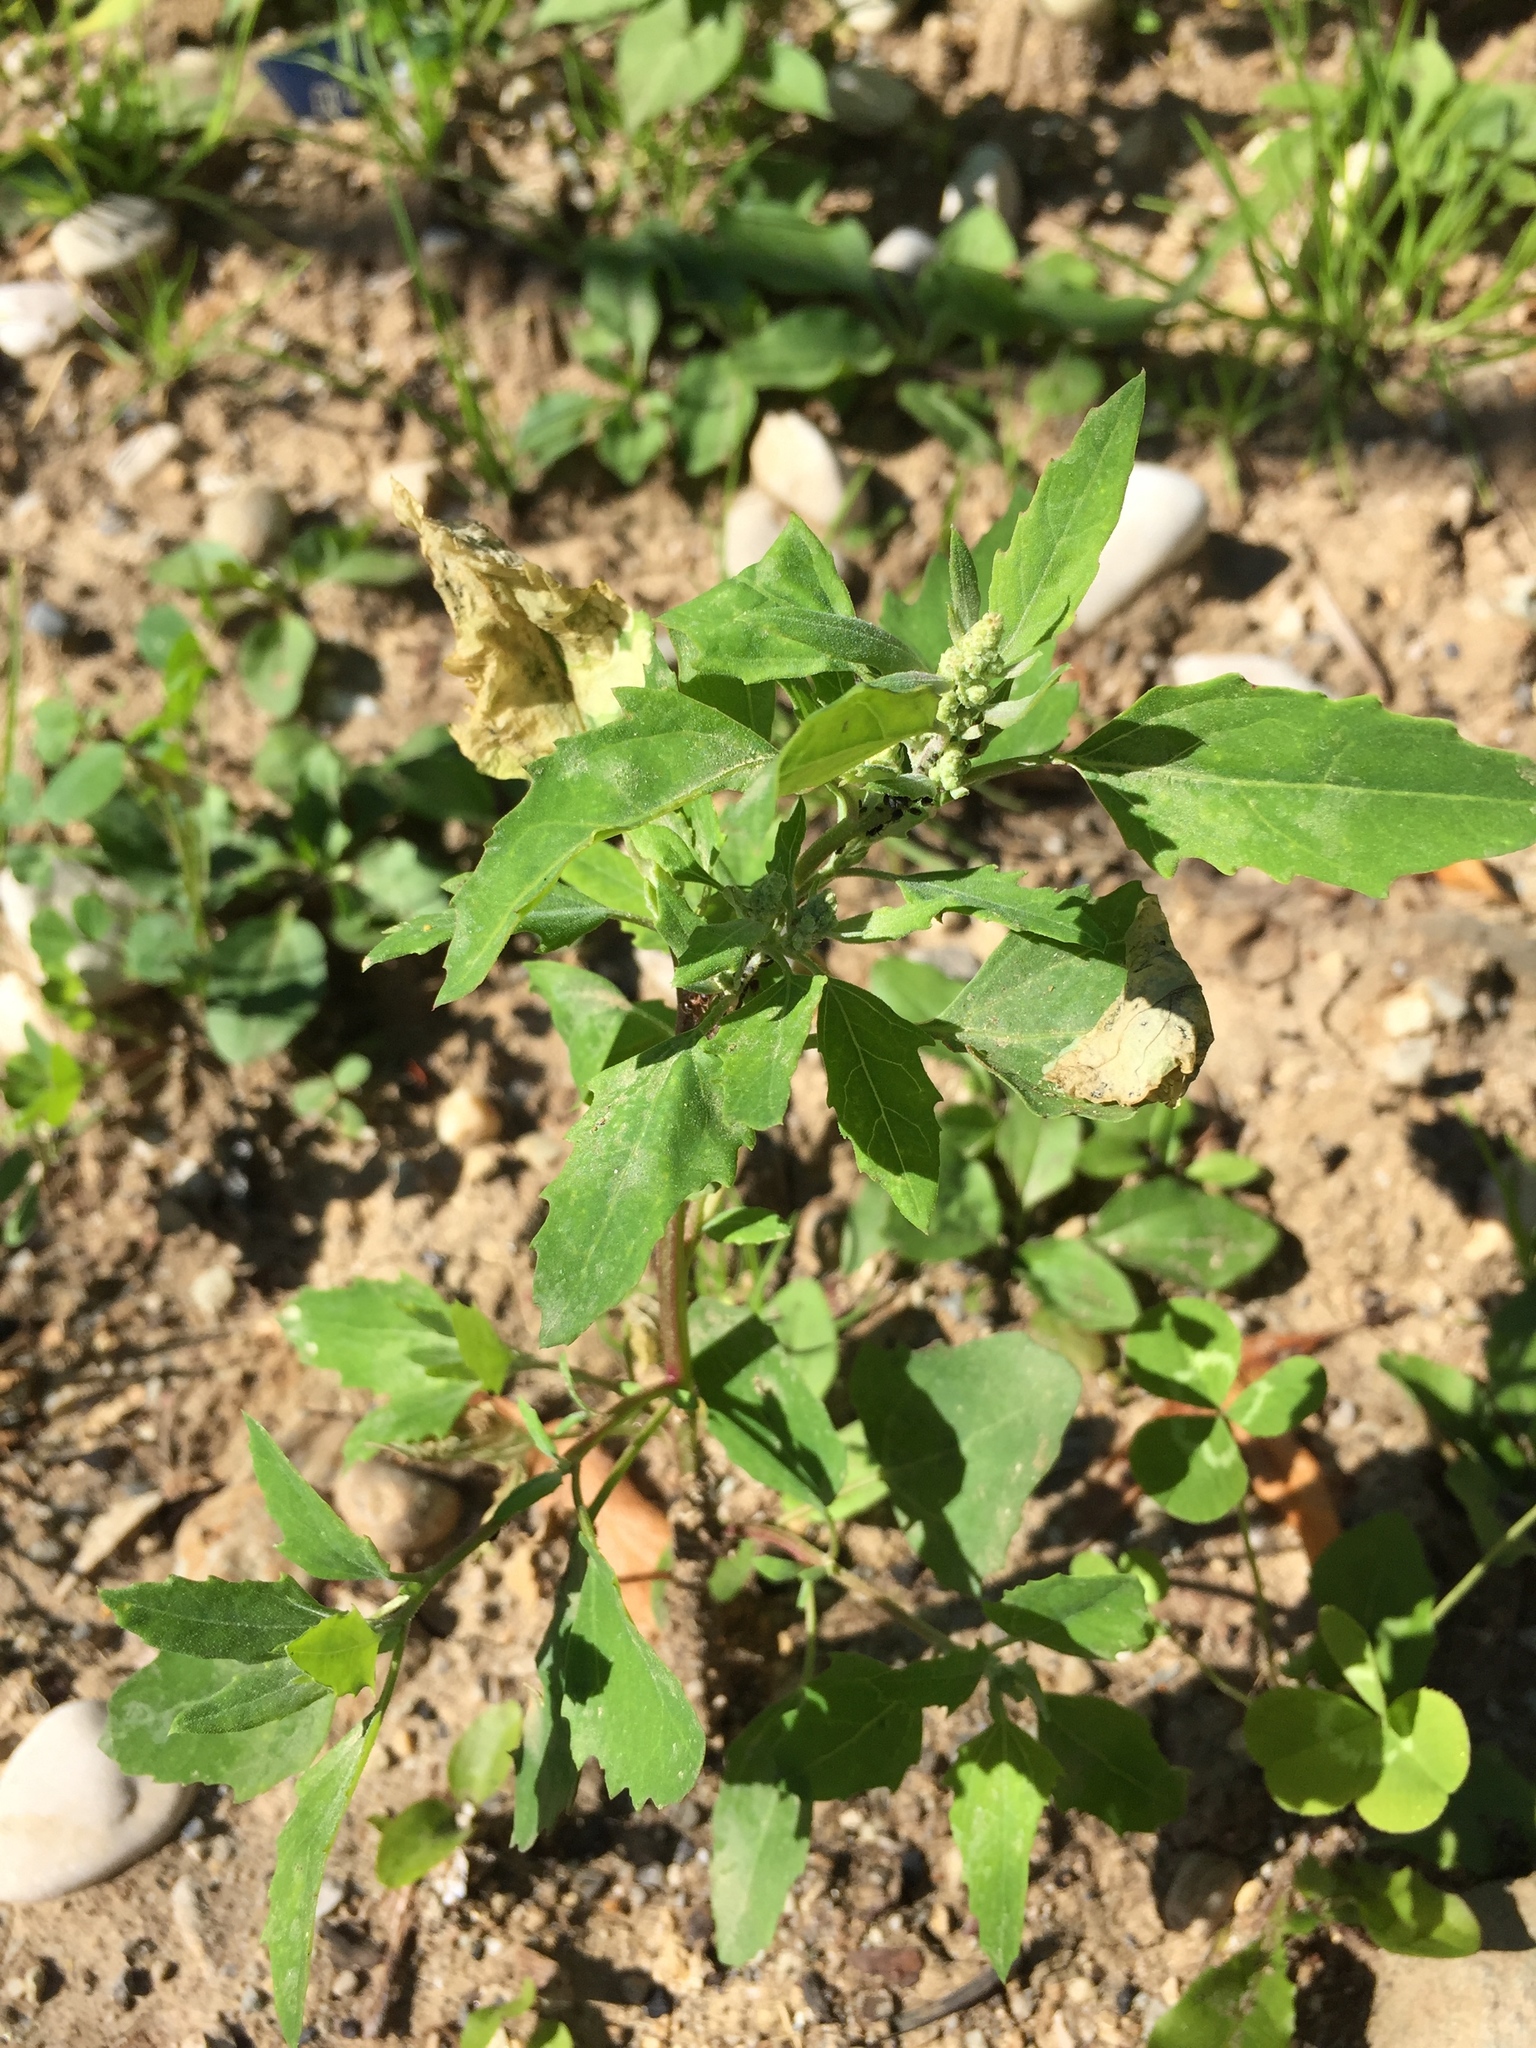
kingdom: Plantae
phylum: Tracheophyta
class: Magnoliopsida
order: Caryophyllales
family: Amaranthaceae
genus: Chenopodium
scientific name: Chenopodium album
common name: Fat-hen
